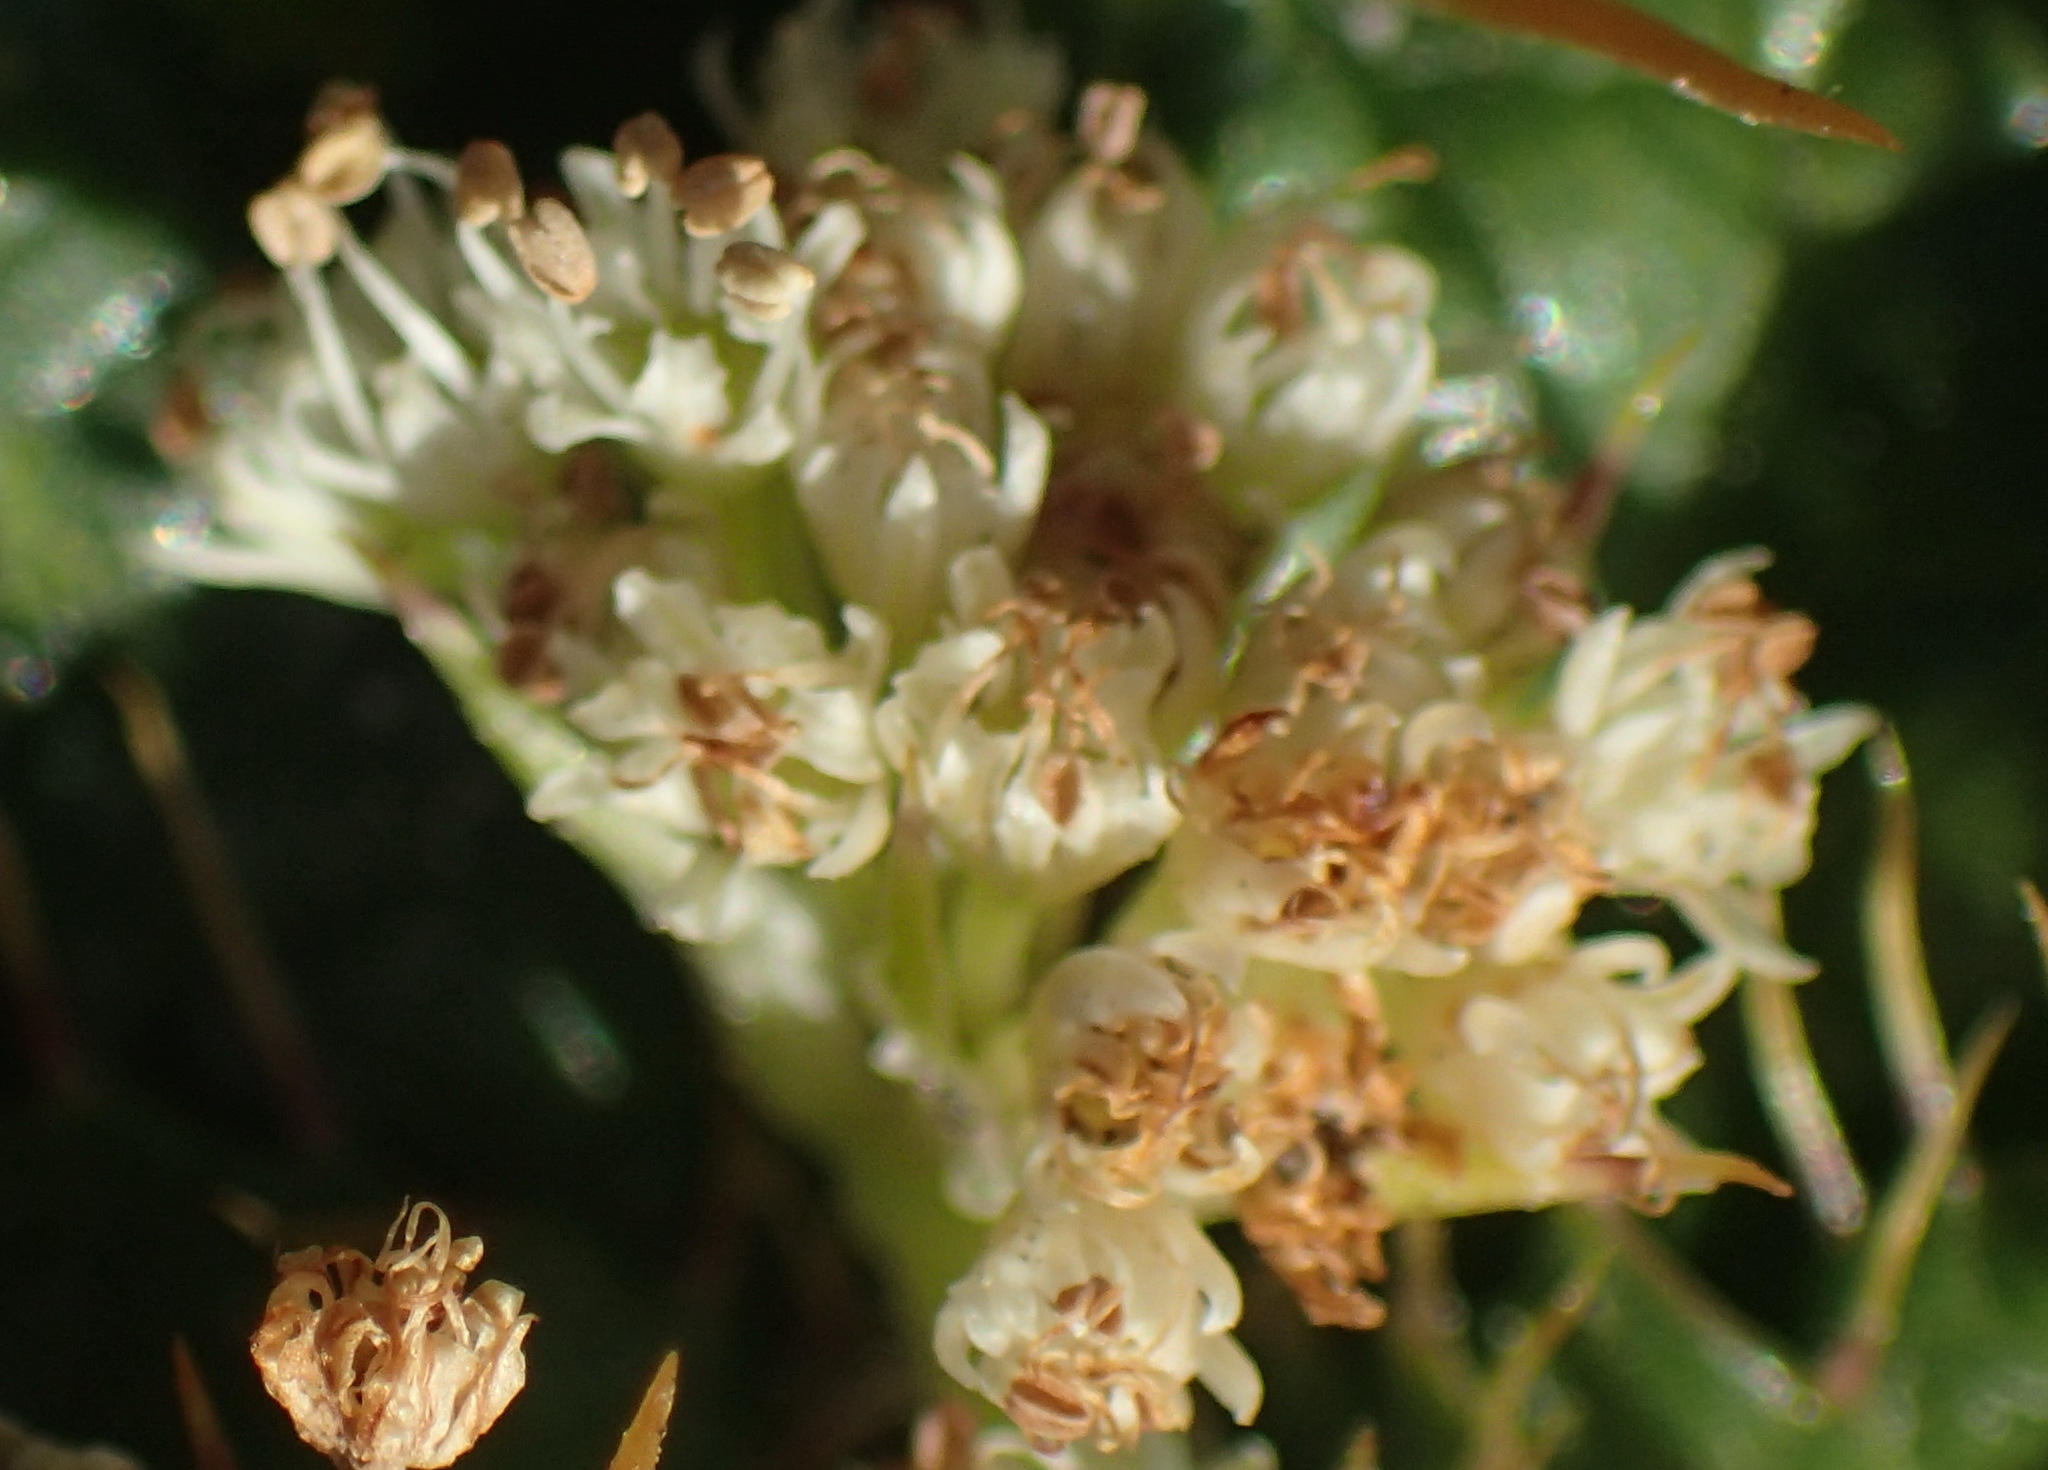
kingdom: Plantae
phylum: Tracheophyta
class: Magnoliopsida
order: Apiales
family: Apiaceae
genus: Arctopus
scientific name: Arctopus echinatus
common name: Platdoring
